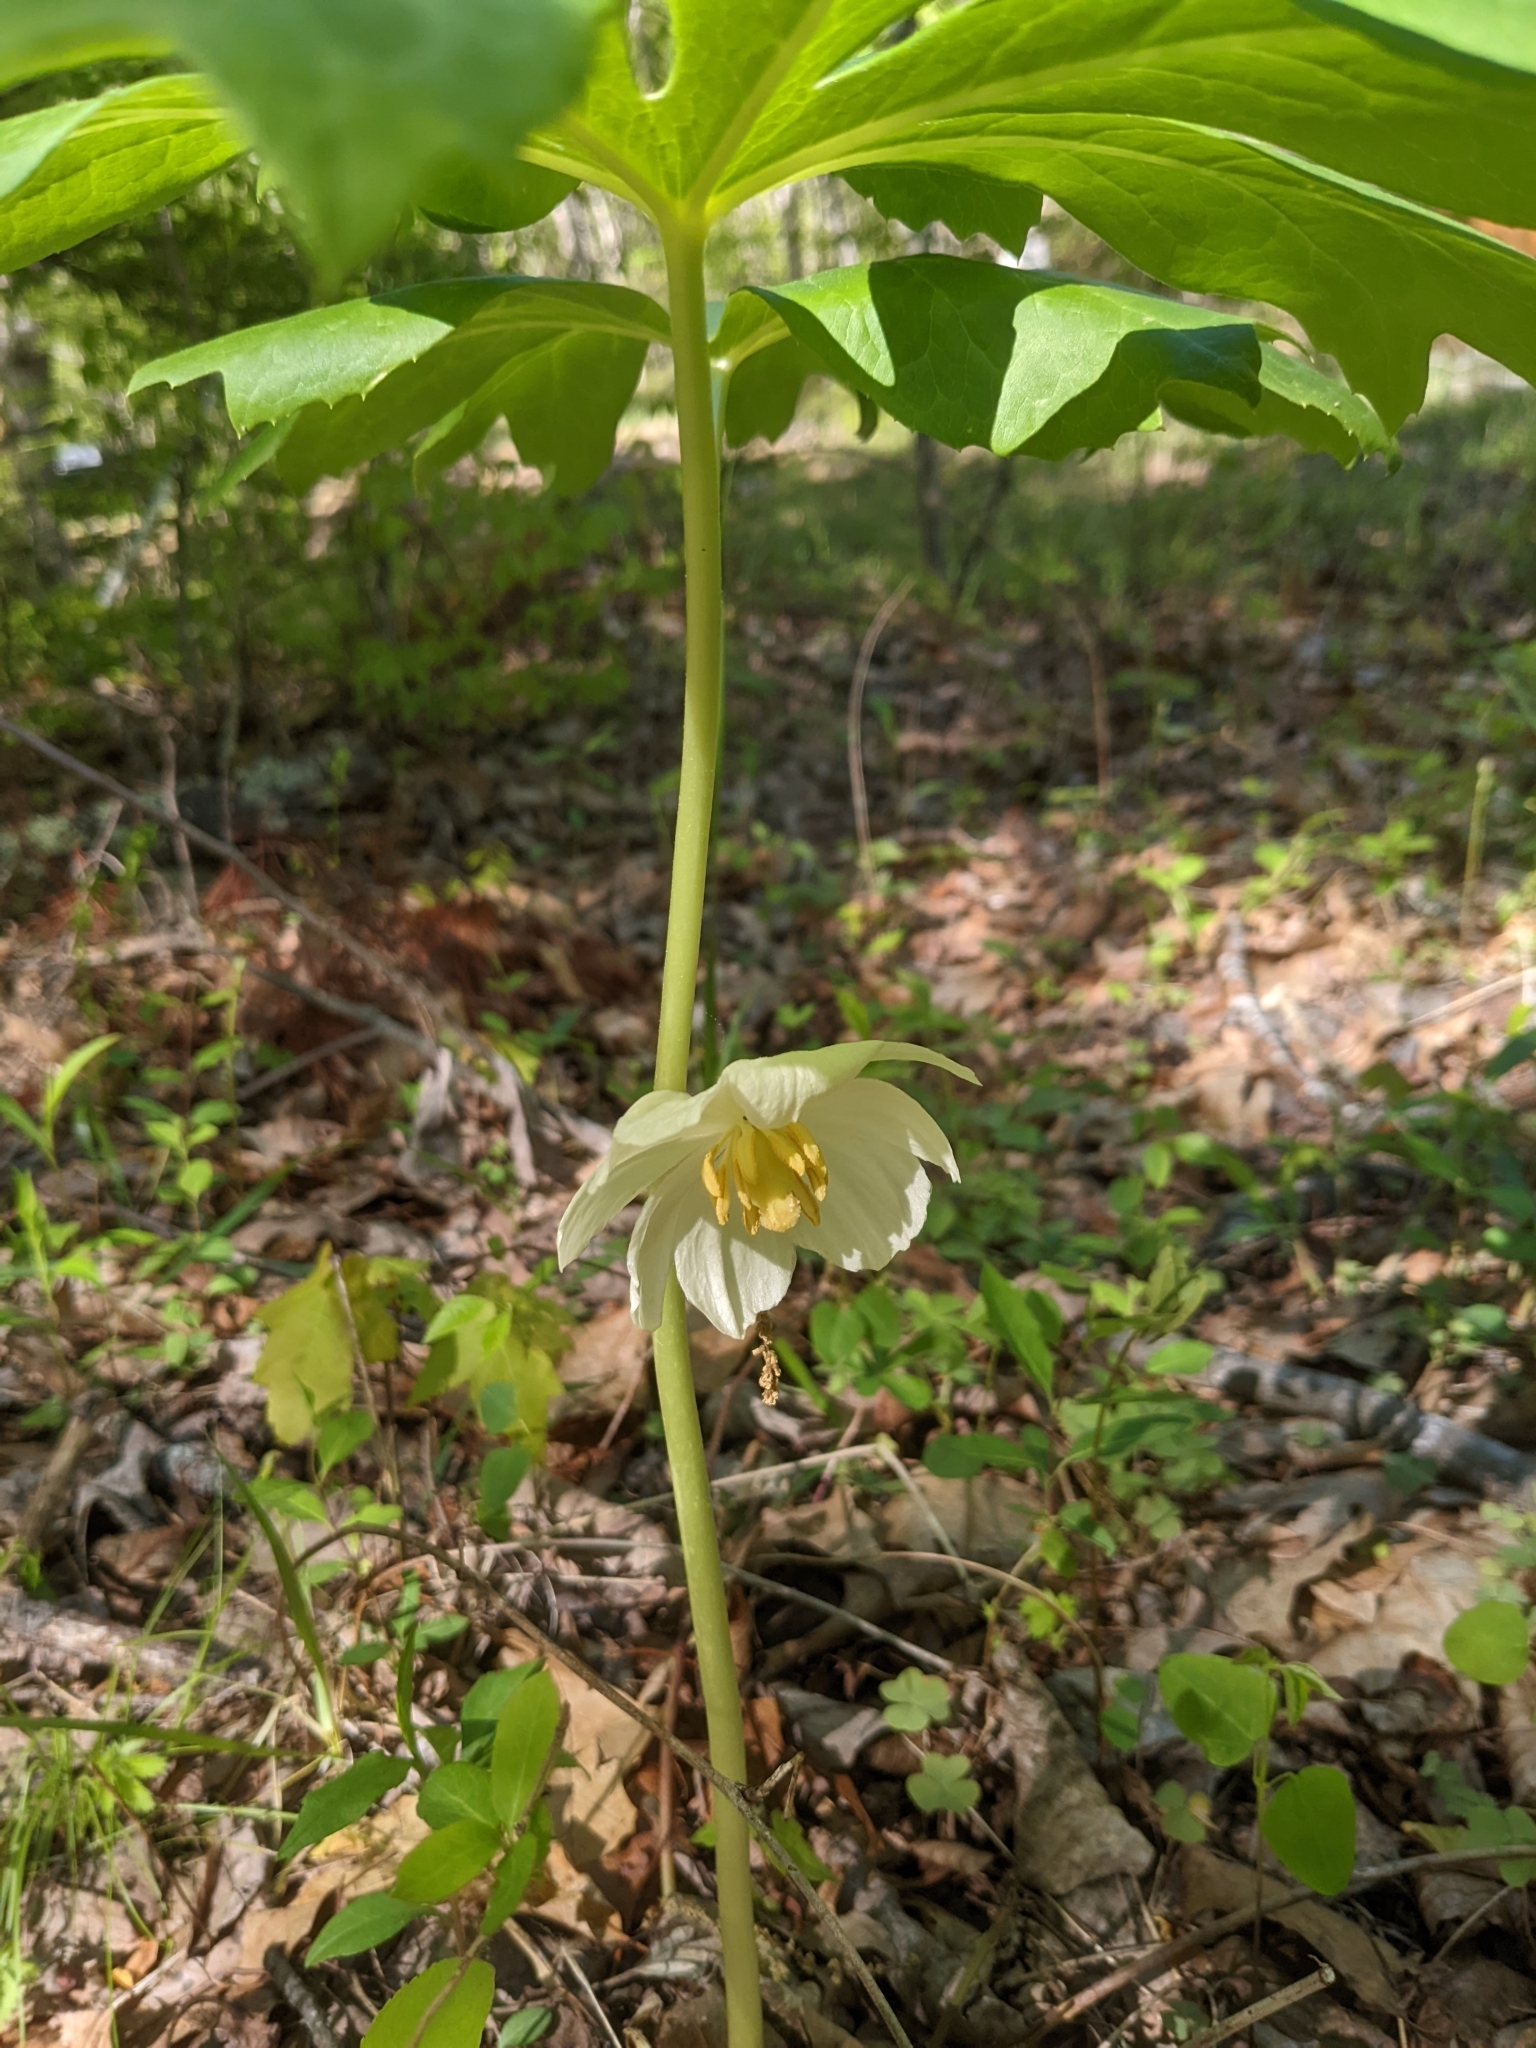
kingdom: Plantae
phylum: Tracheophyta
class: Magnoliopsida
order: Ranunculales
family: Berberidaceae
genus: Podophyllum
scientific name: Podophyllum peltatum
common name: Wild mandrake
